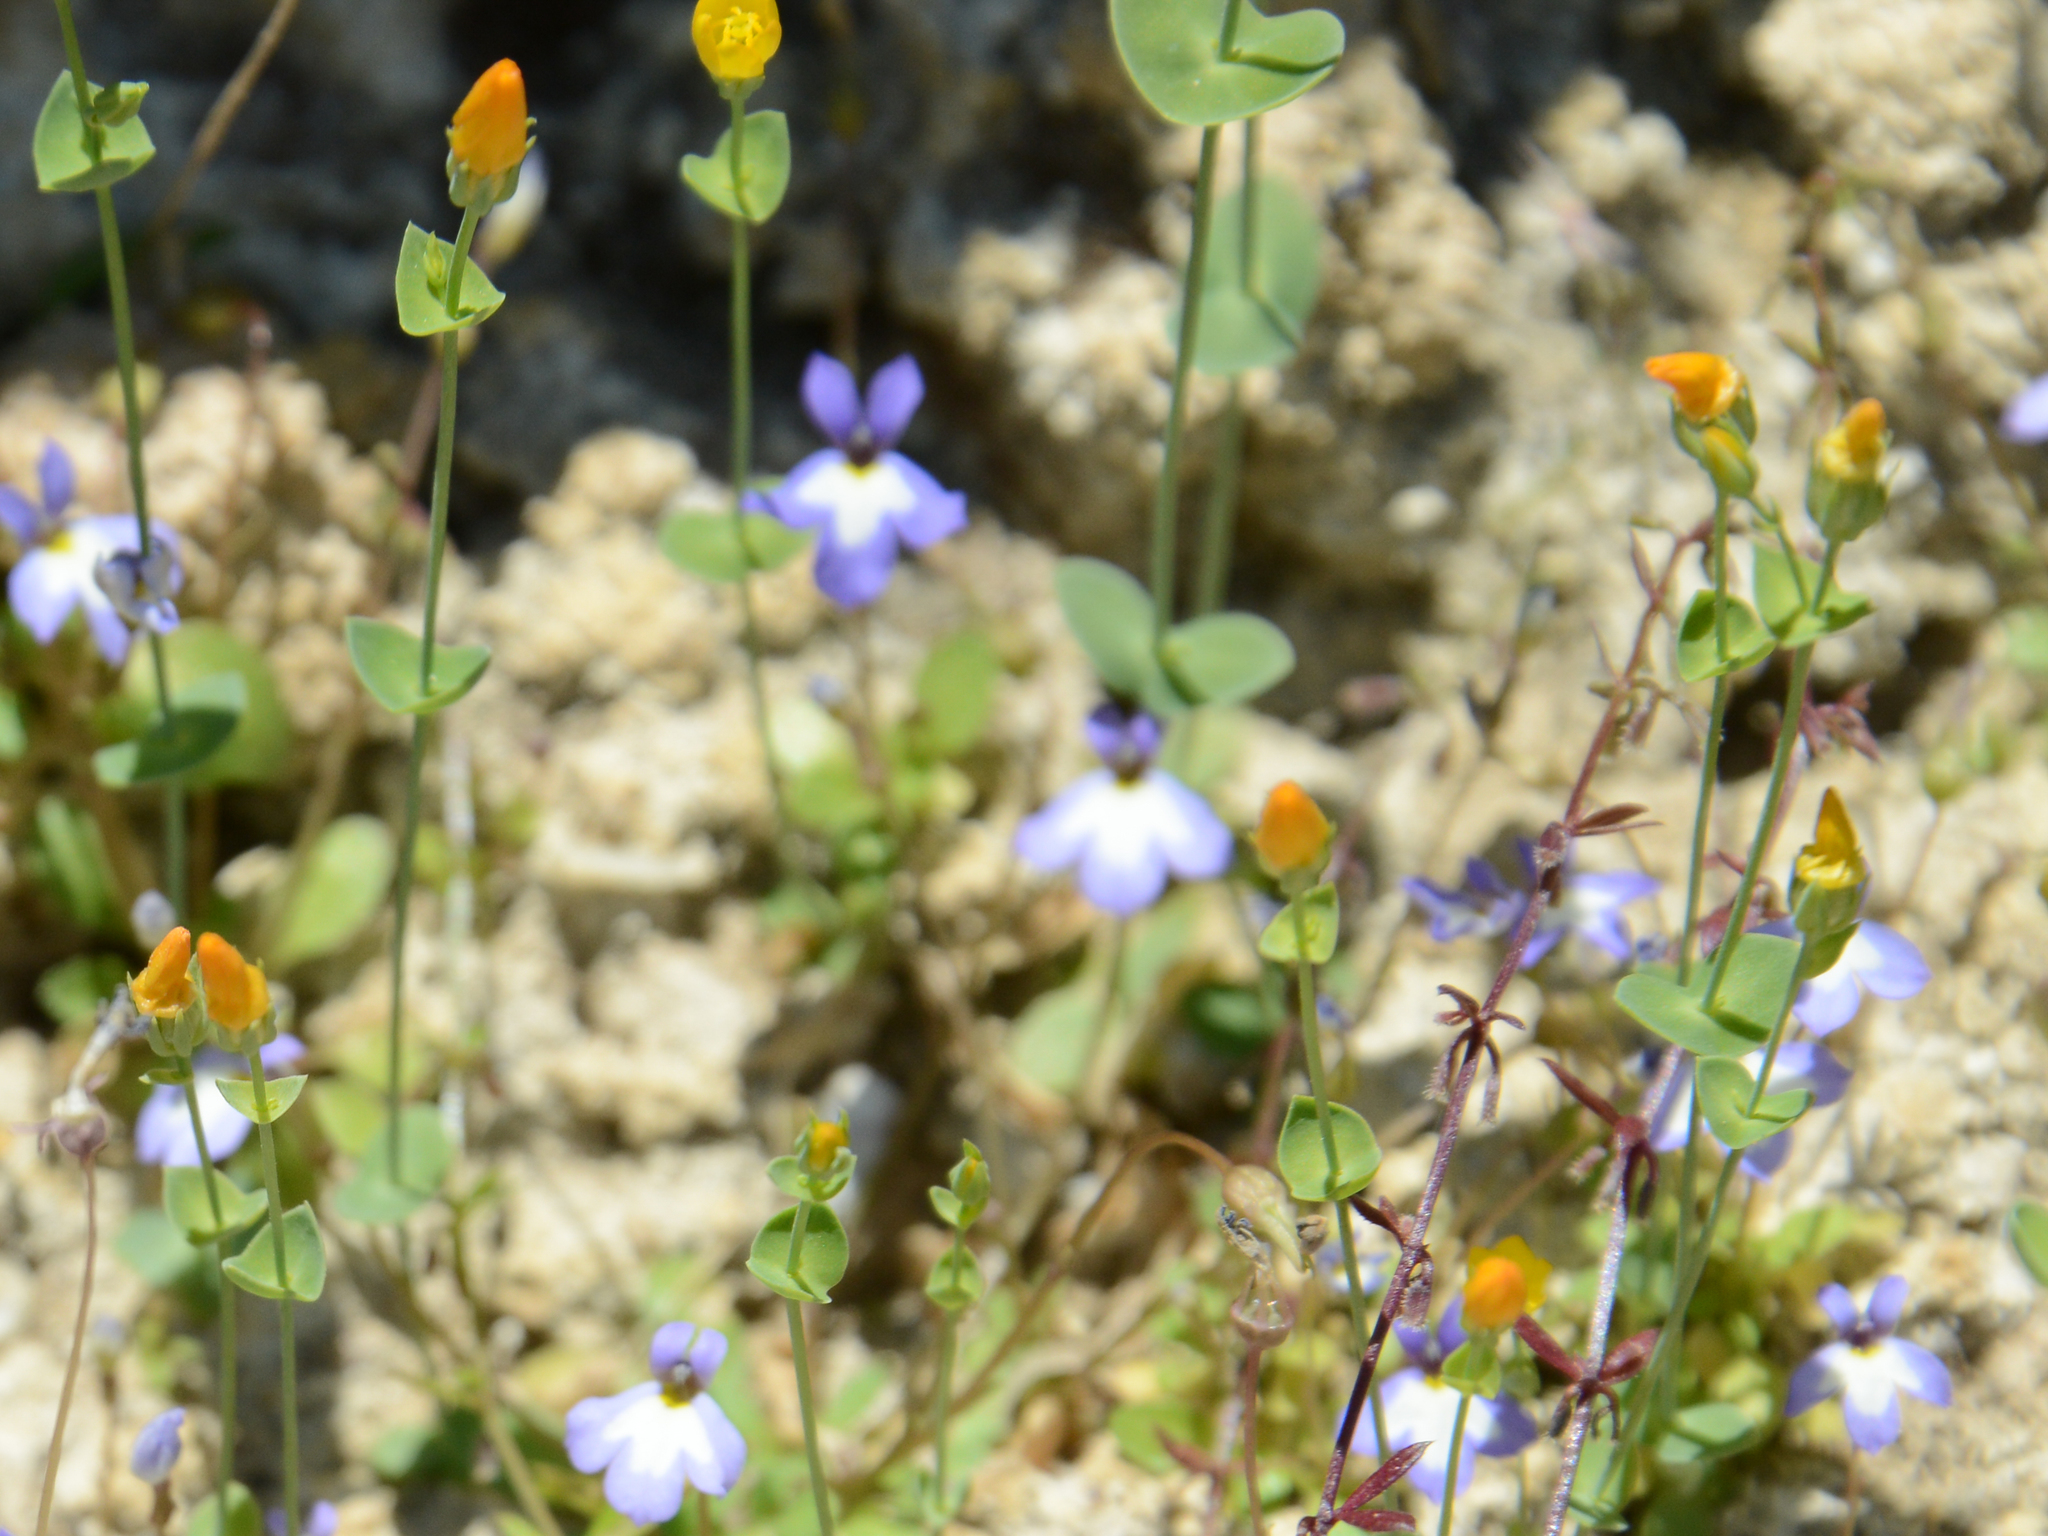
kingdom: Plantae
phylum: Tracheophyta
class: Magnoliopsida
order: Gentianales
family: Gentianaceae
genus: Blackstonia
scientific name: Blackstonia acuminata
